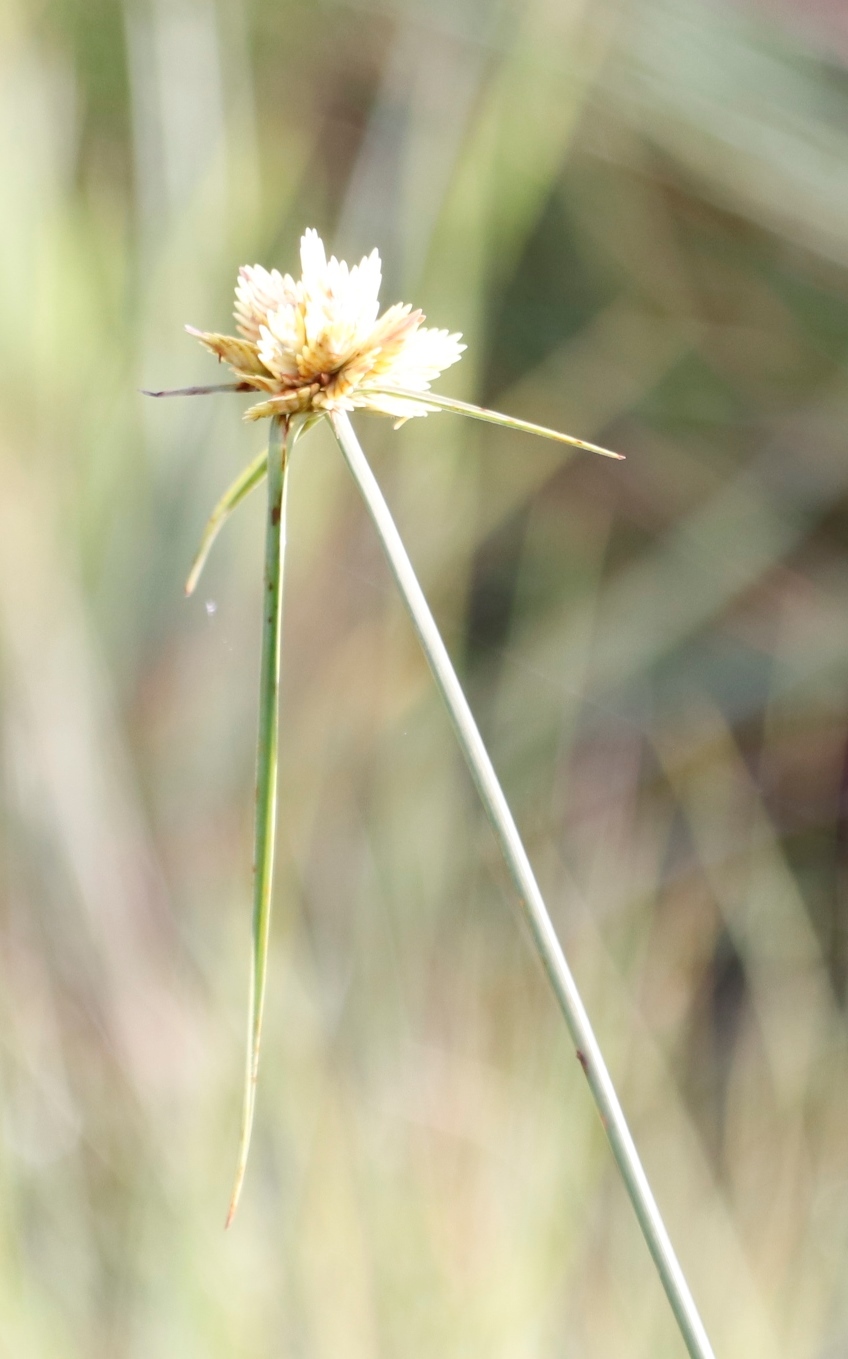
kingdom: Plantae
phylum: Tracheophyta
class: Liliopsida
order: Poales
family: Cyperaceae
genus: Cyperus
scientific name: Cyperus sphaerocephalus
